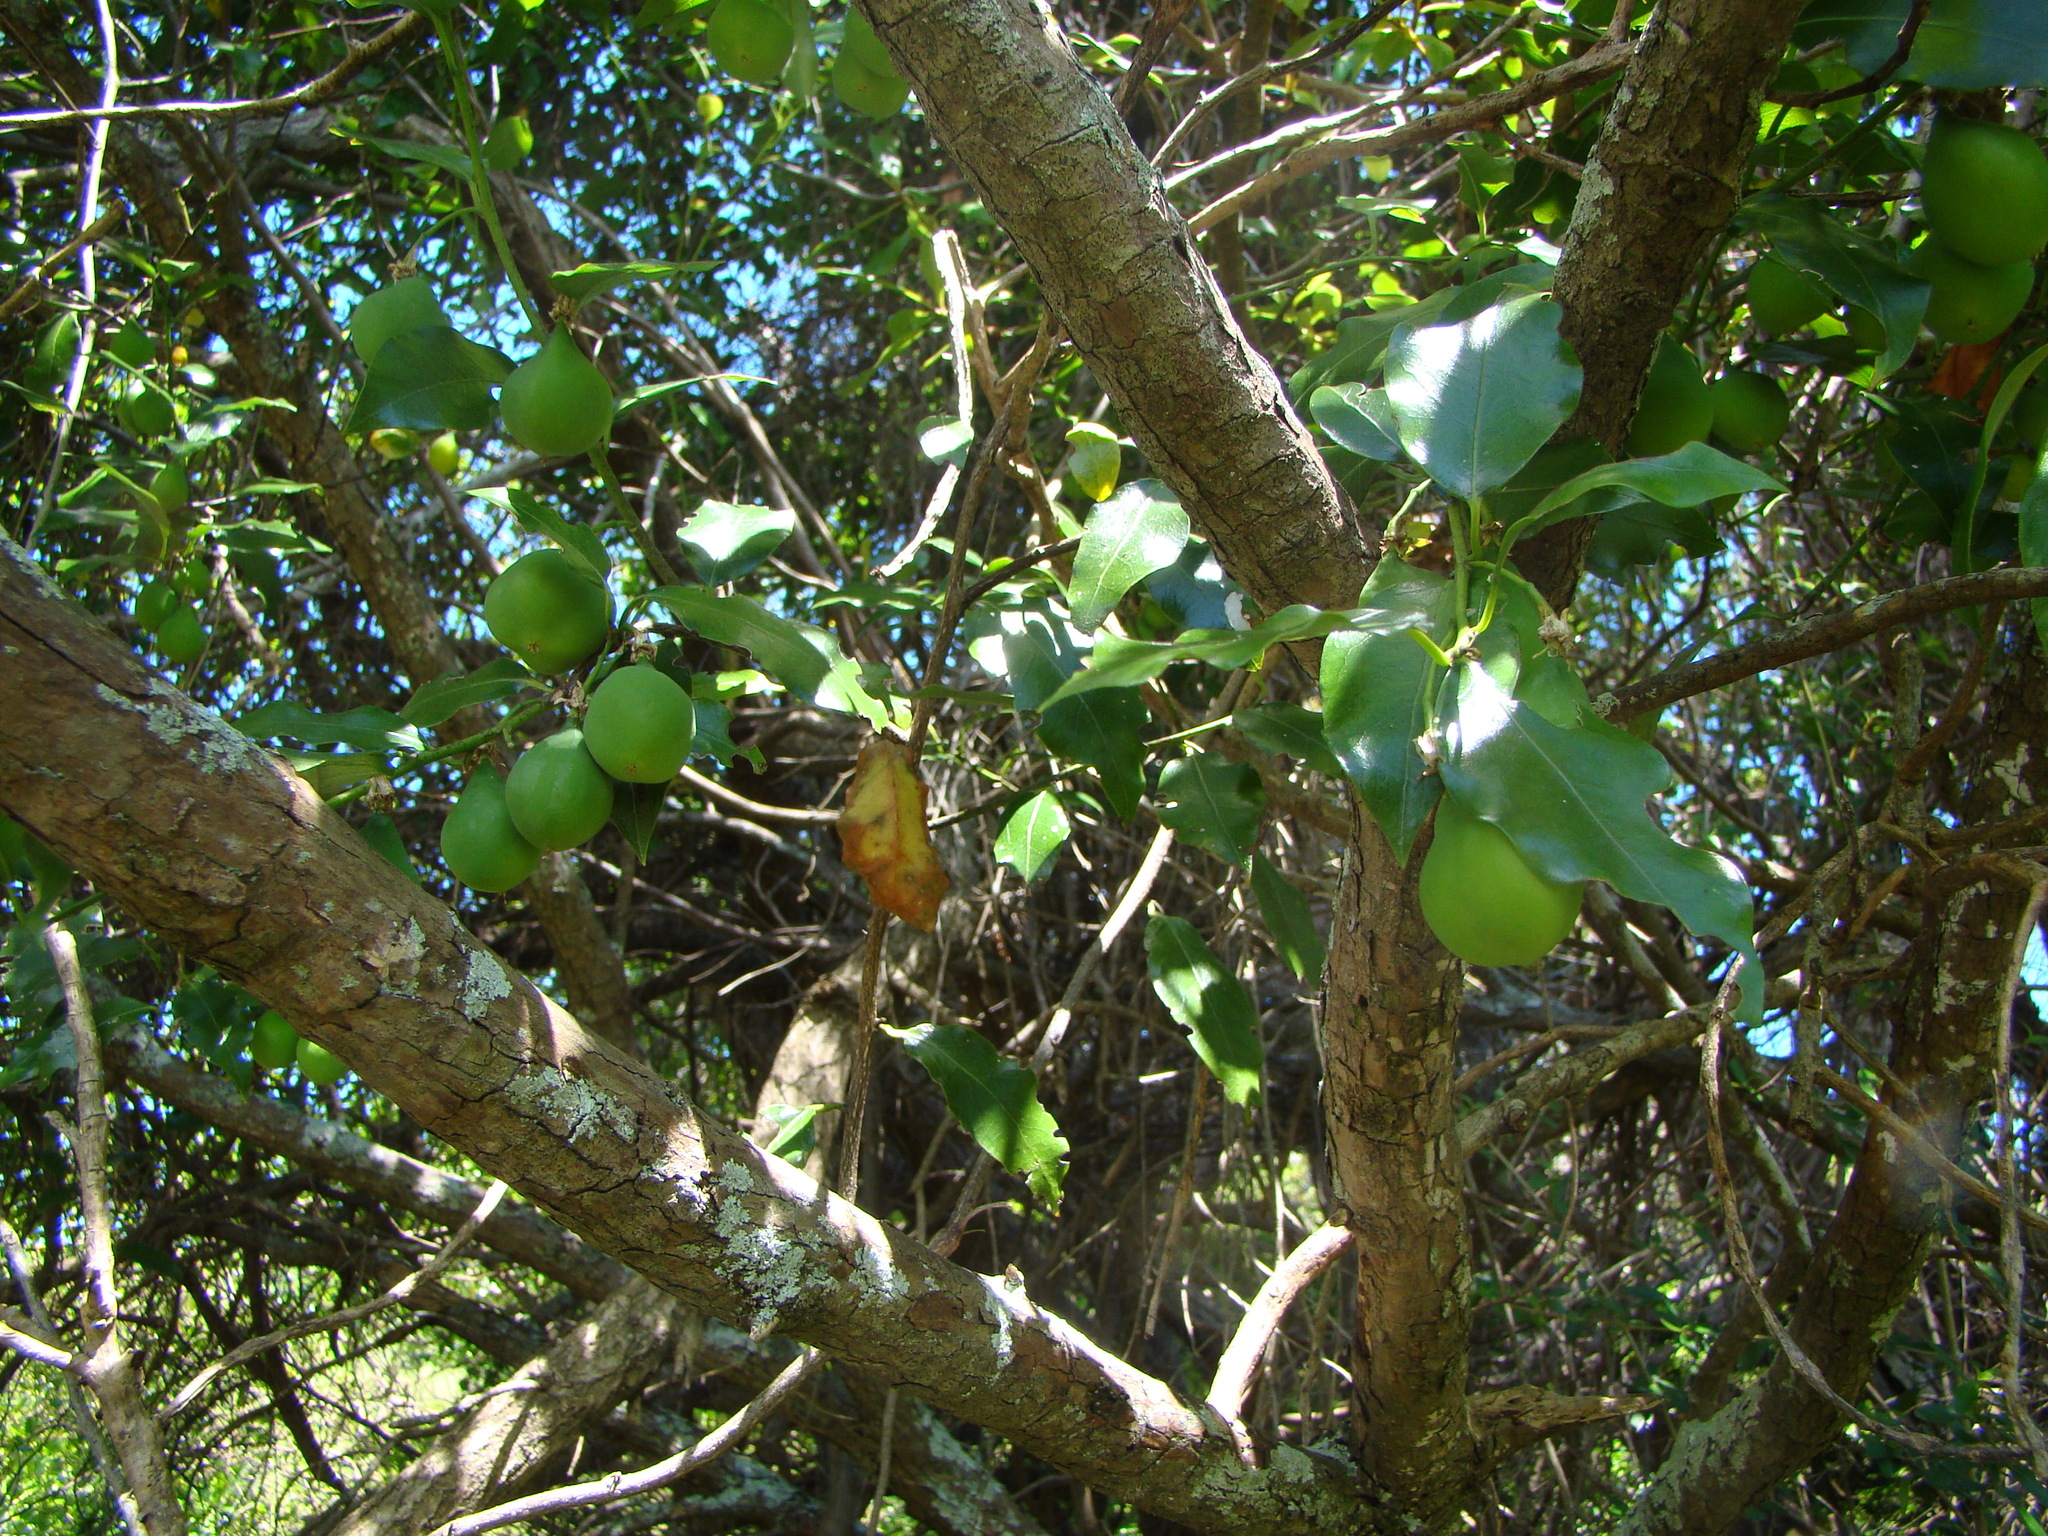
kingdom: Plantae
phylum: Tracheophyta
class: Magnoliopsida
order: Malpighiales
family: Passifloraceae
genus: Passiflora
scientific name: Passiflora tetrandra
